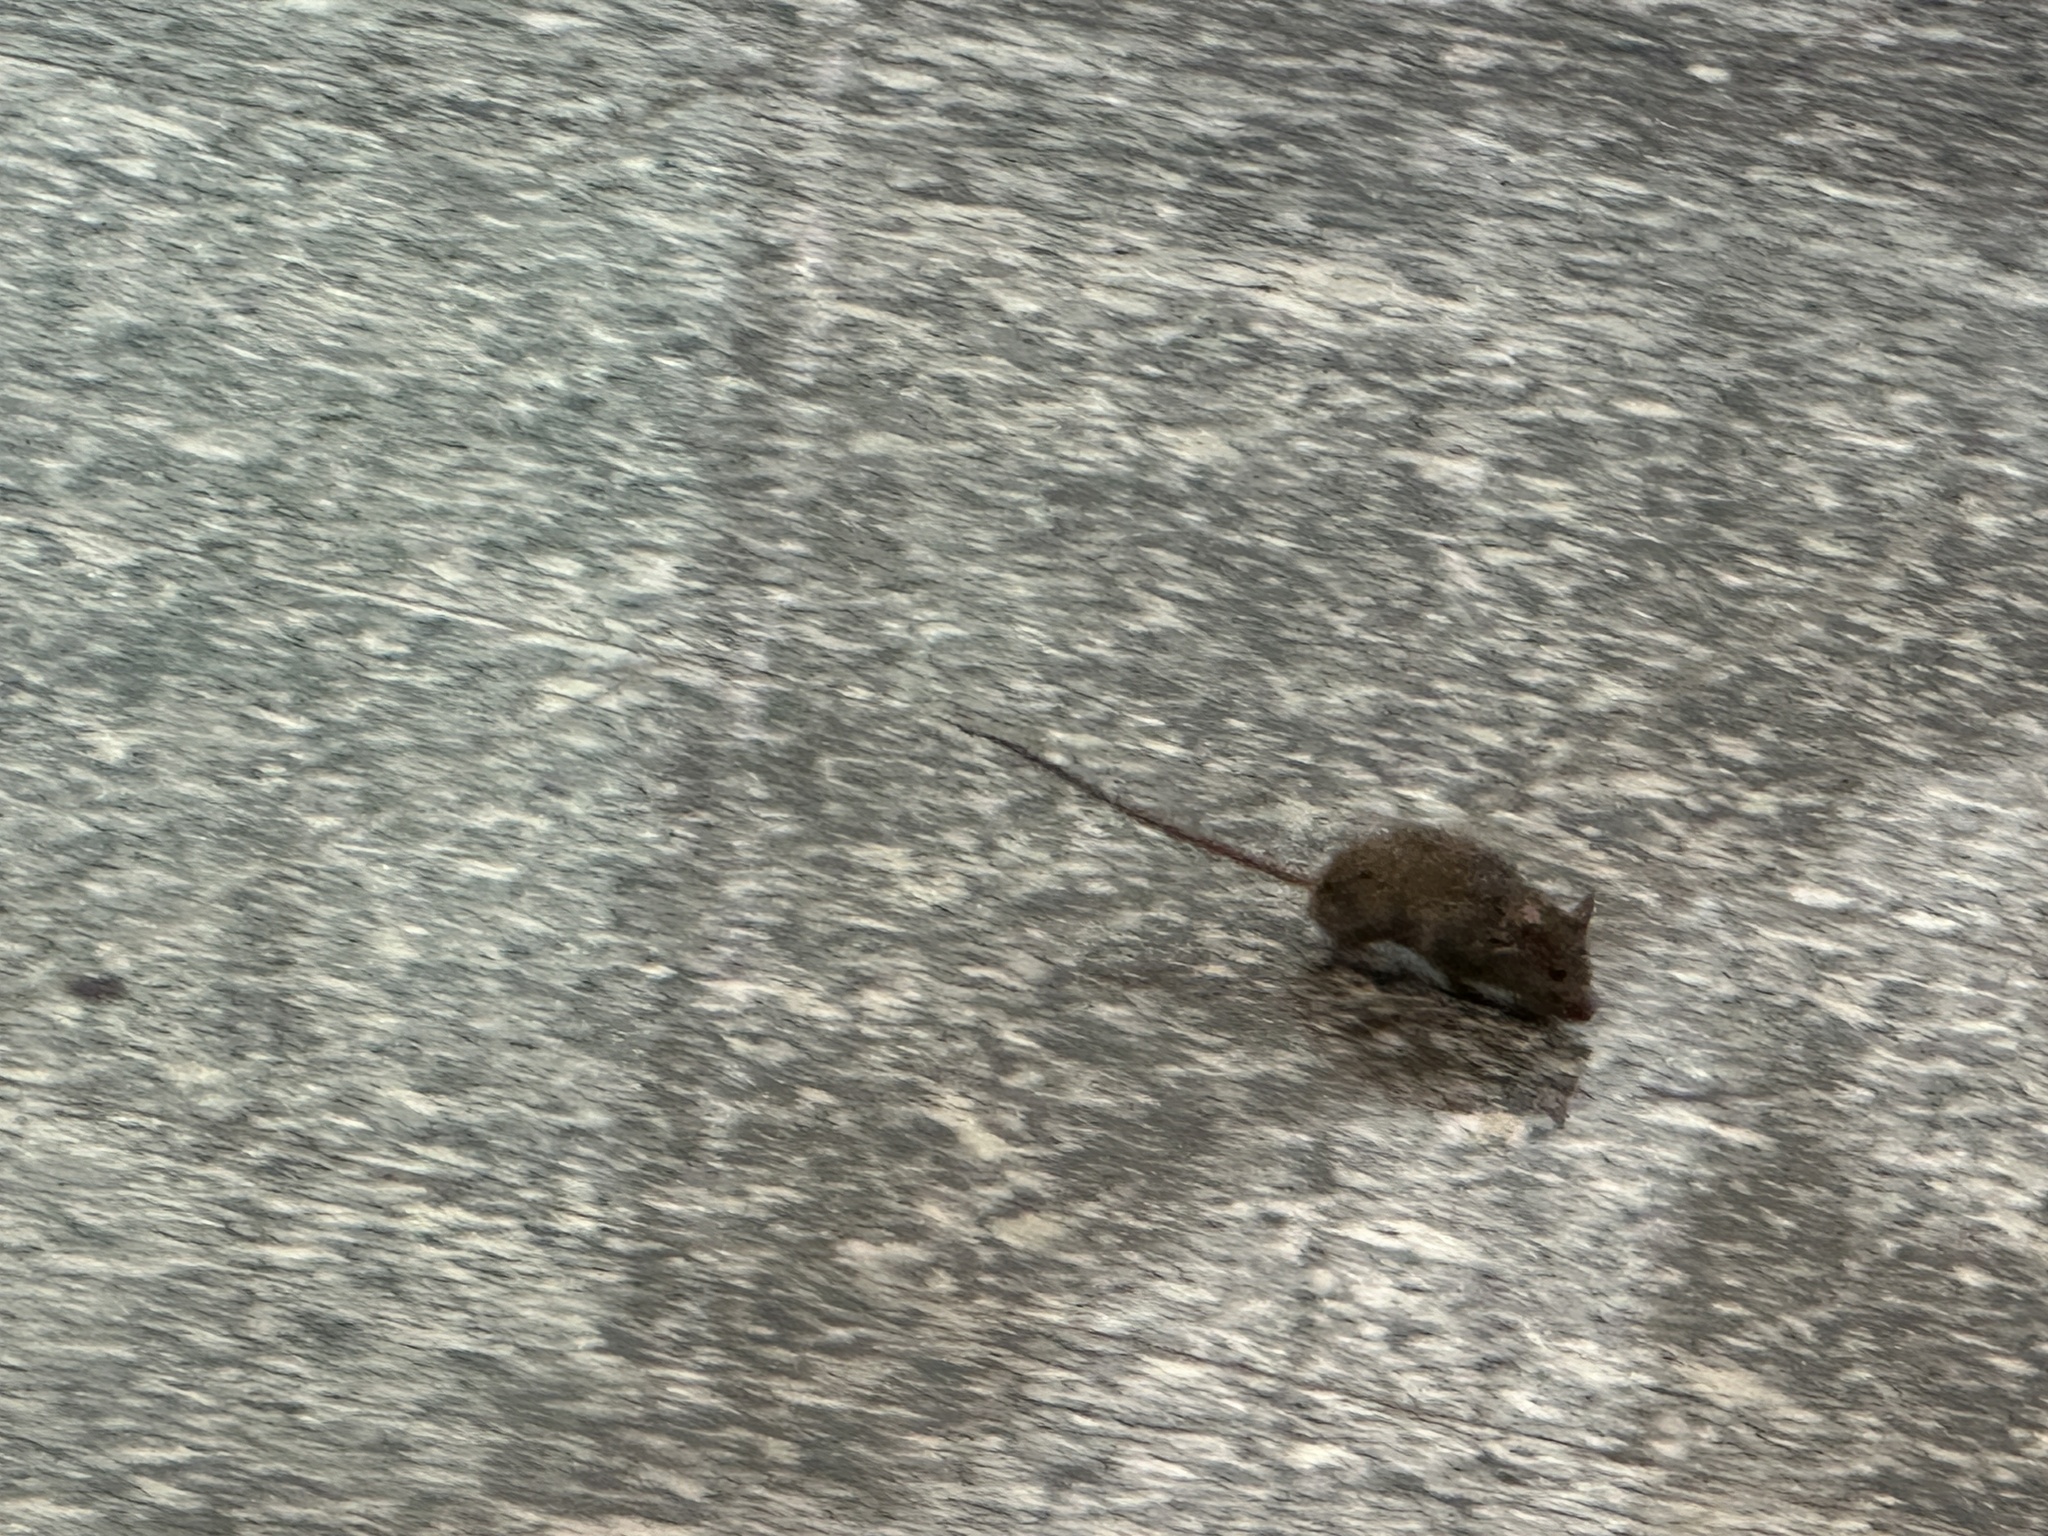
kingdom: Animalia
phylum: Chordata
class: Mammalia
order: Rodentia
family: Muridae
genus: Mus
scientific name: Mus musculus
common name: House mouse
